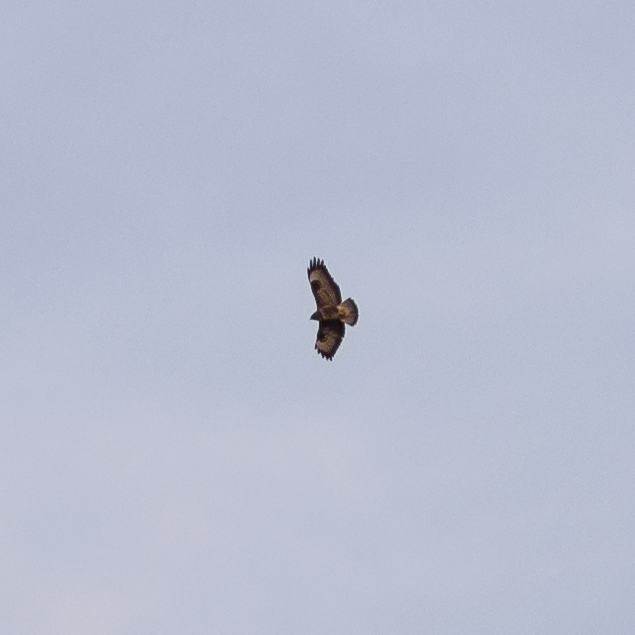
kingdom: Animalia
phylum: Chordata
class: Aves
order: Accipitriformes
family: Accipitridae
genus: Buteo
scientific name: Buteo buteo
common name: Common buzzard
